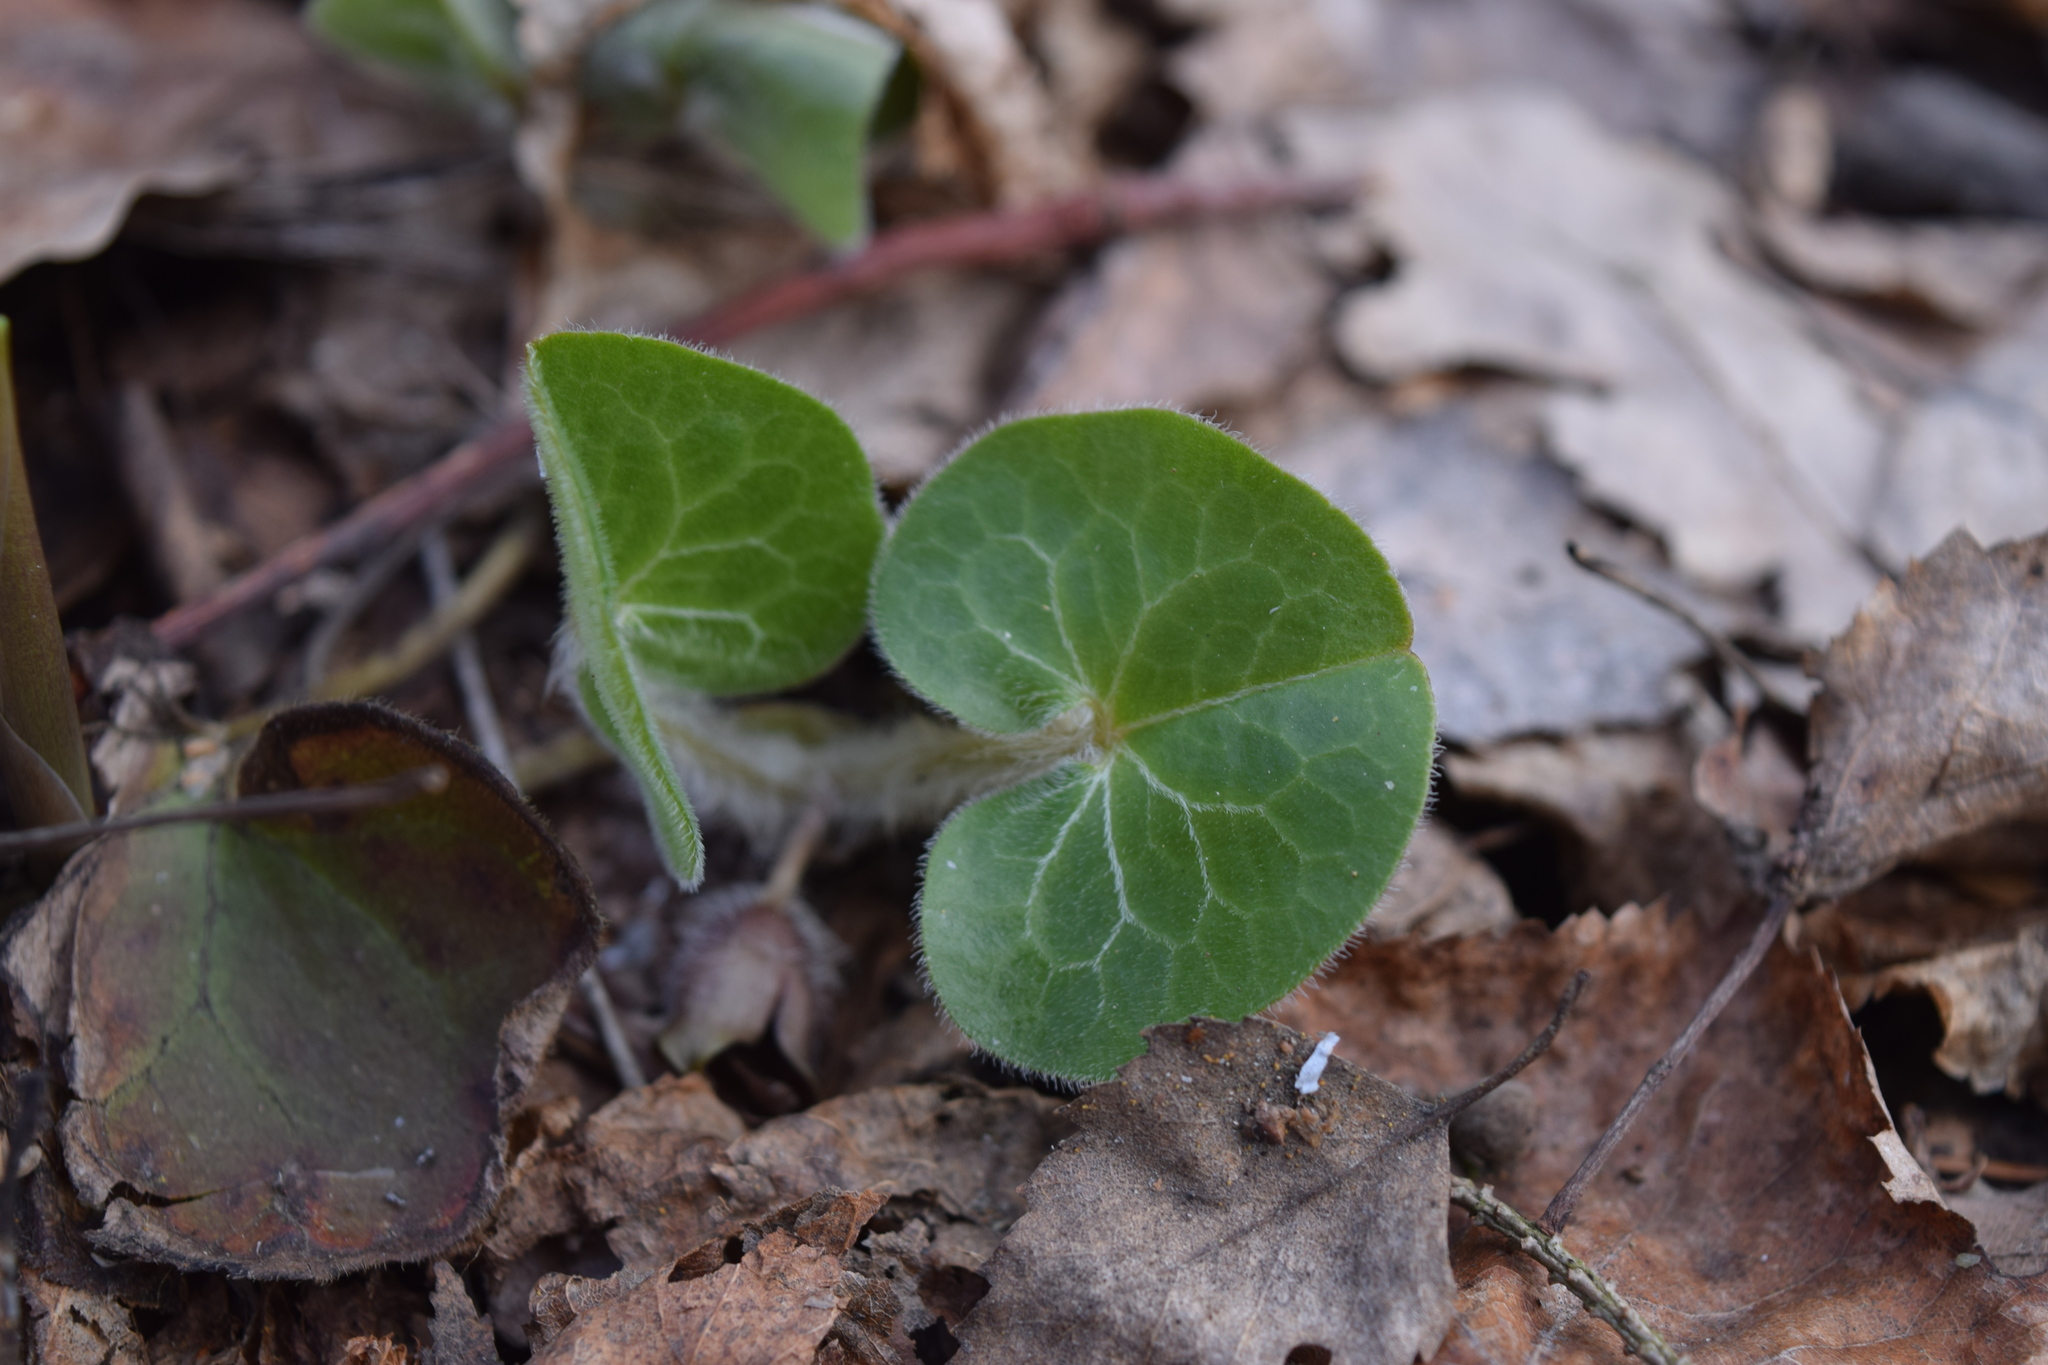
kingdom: Plantae
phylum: Tracheophyta
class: Magnoliopsida
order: Piperales
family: Aristolochiaceae
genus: Asarum
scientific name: Asarum europaeum
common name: Asarabacca
